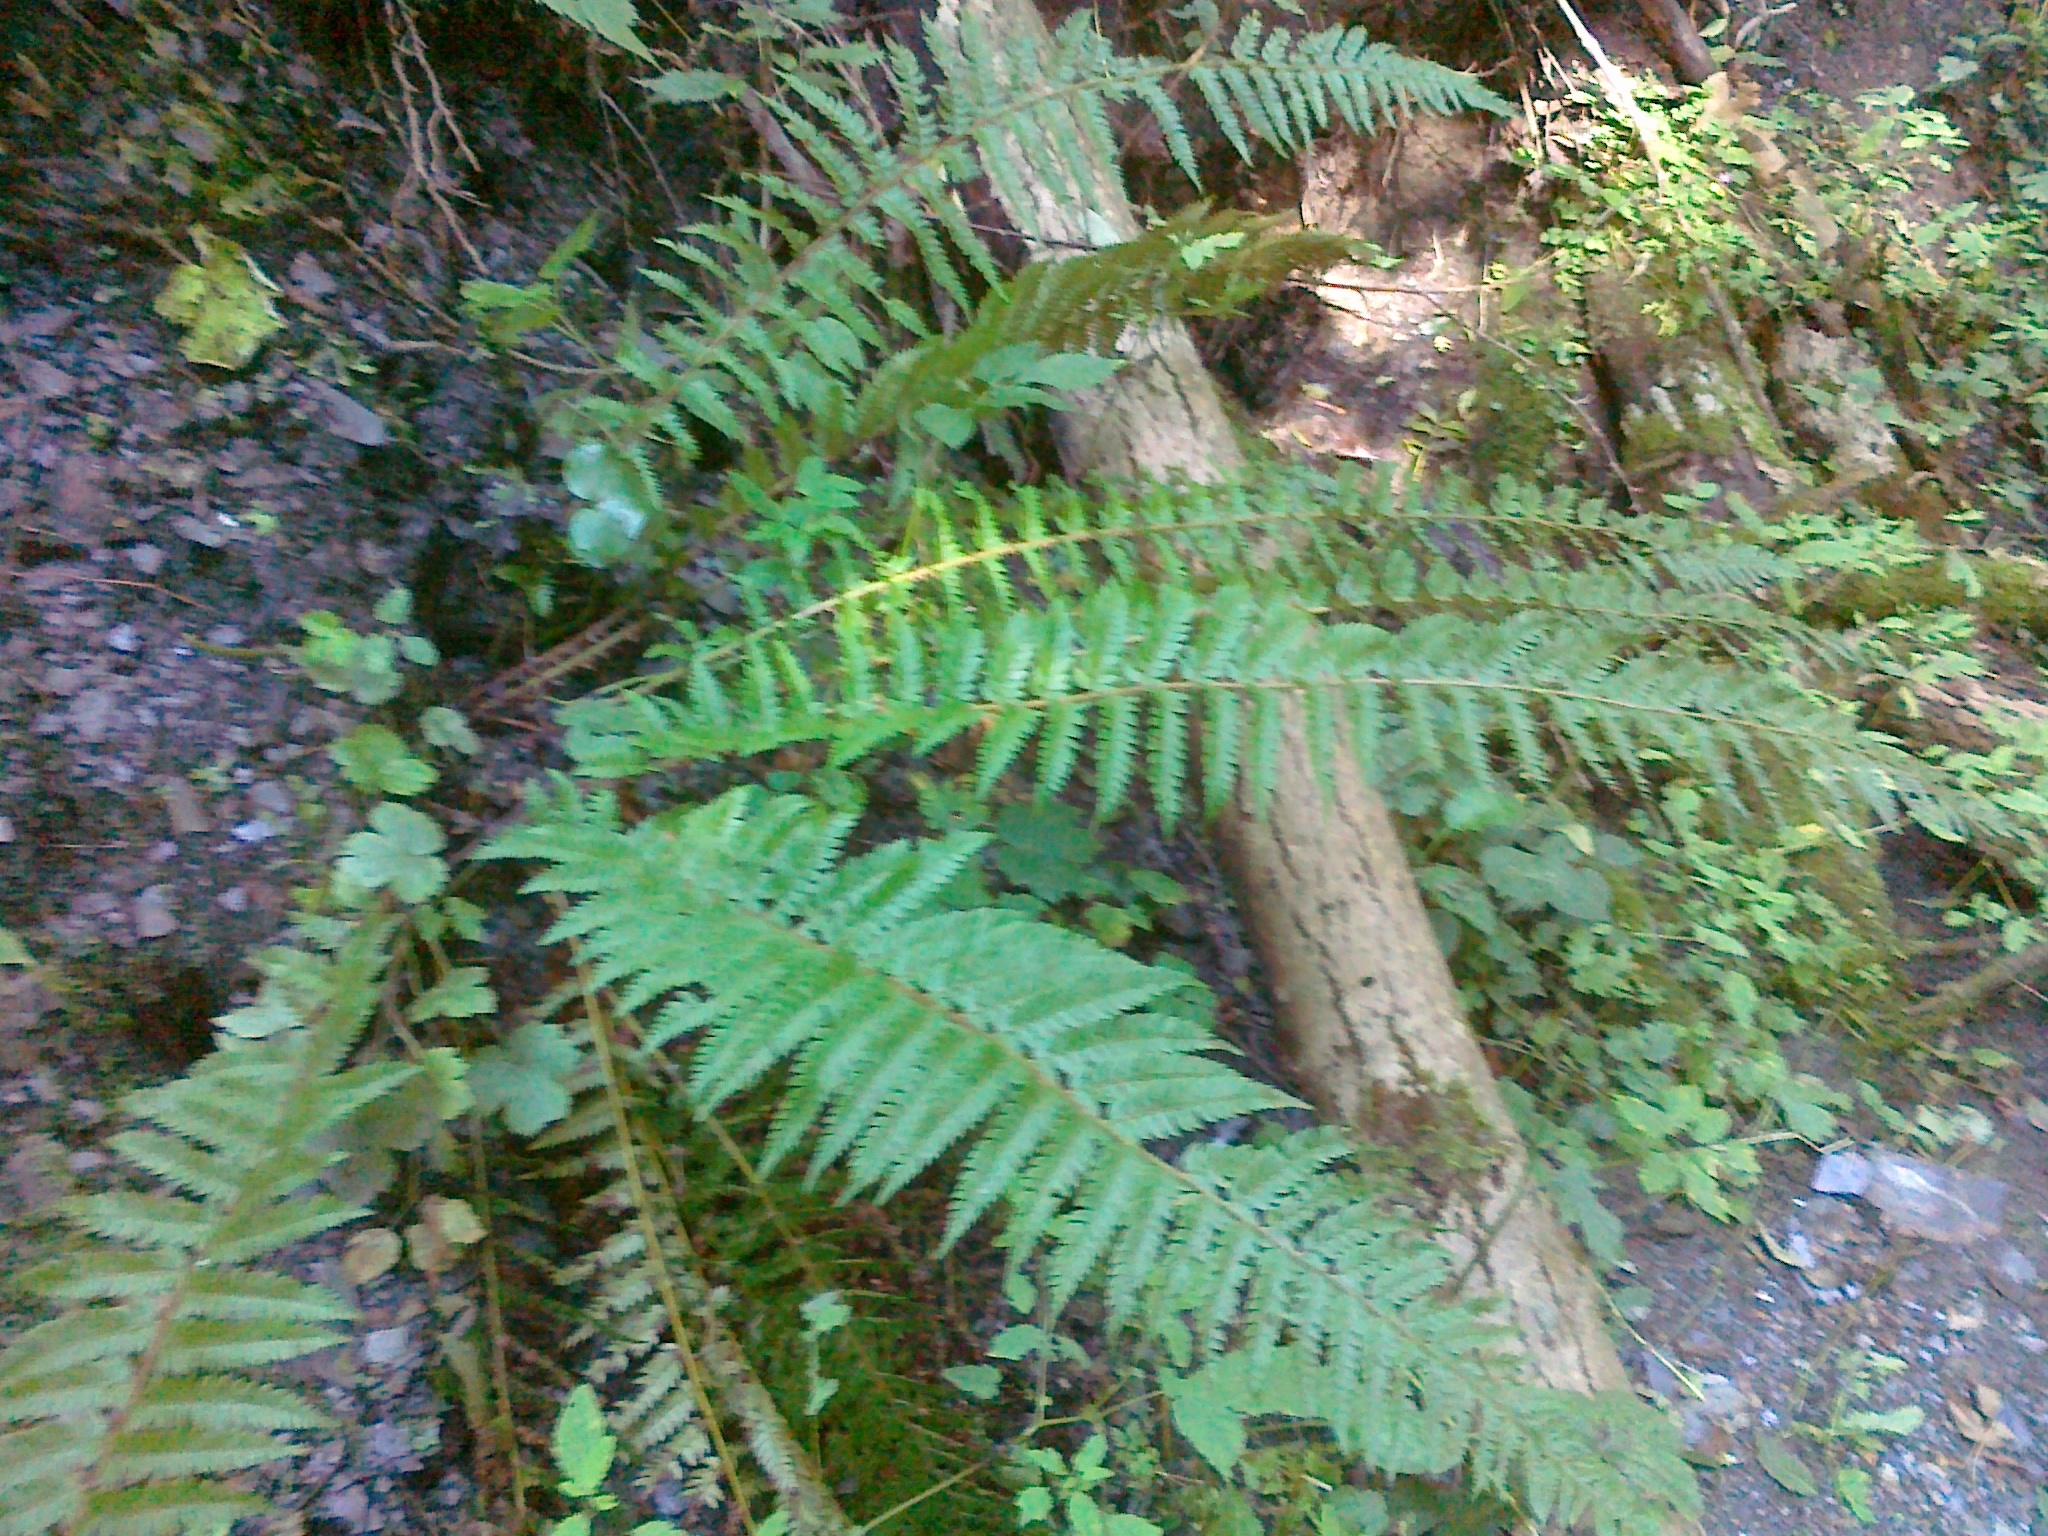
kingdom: Plantae
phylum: Tracheophyta
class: Polypodiopsida
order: Polypodiales
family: Dryopteridaceae
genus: Polystichum
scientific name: Polystichum aculeatum
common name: Hard shield-fern
